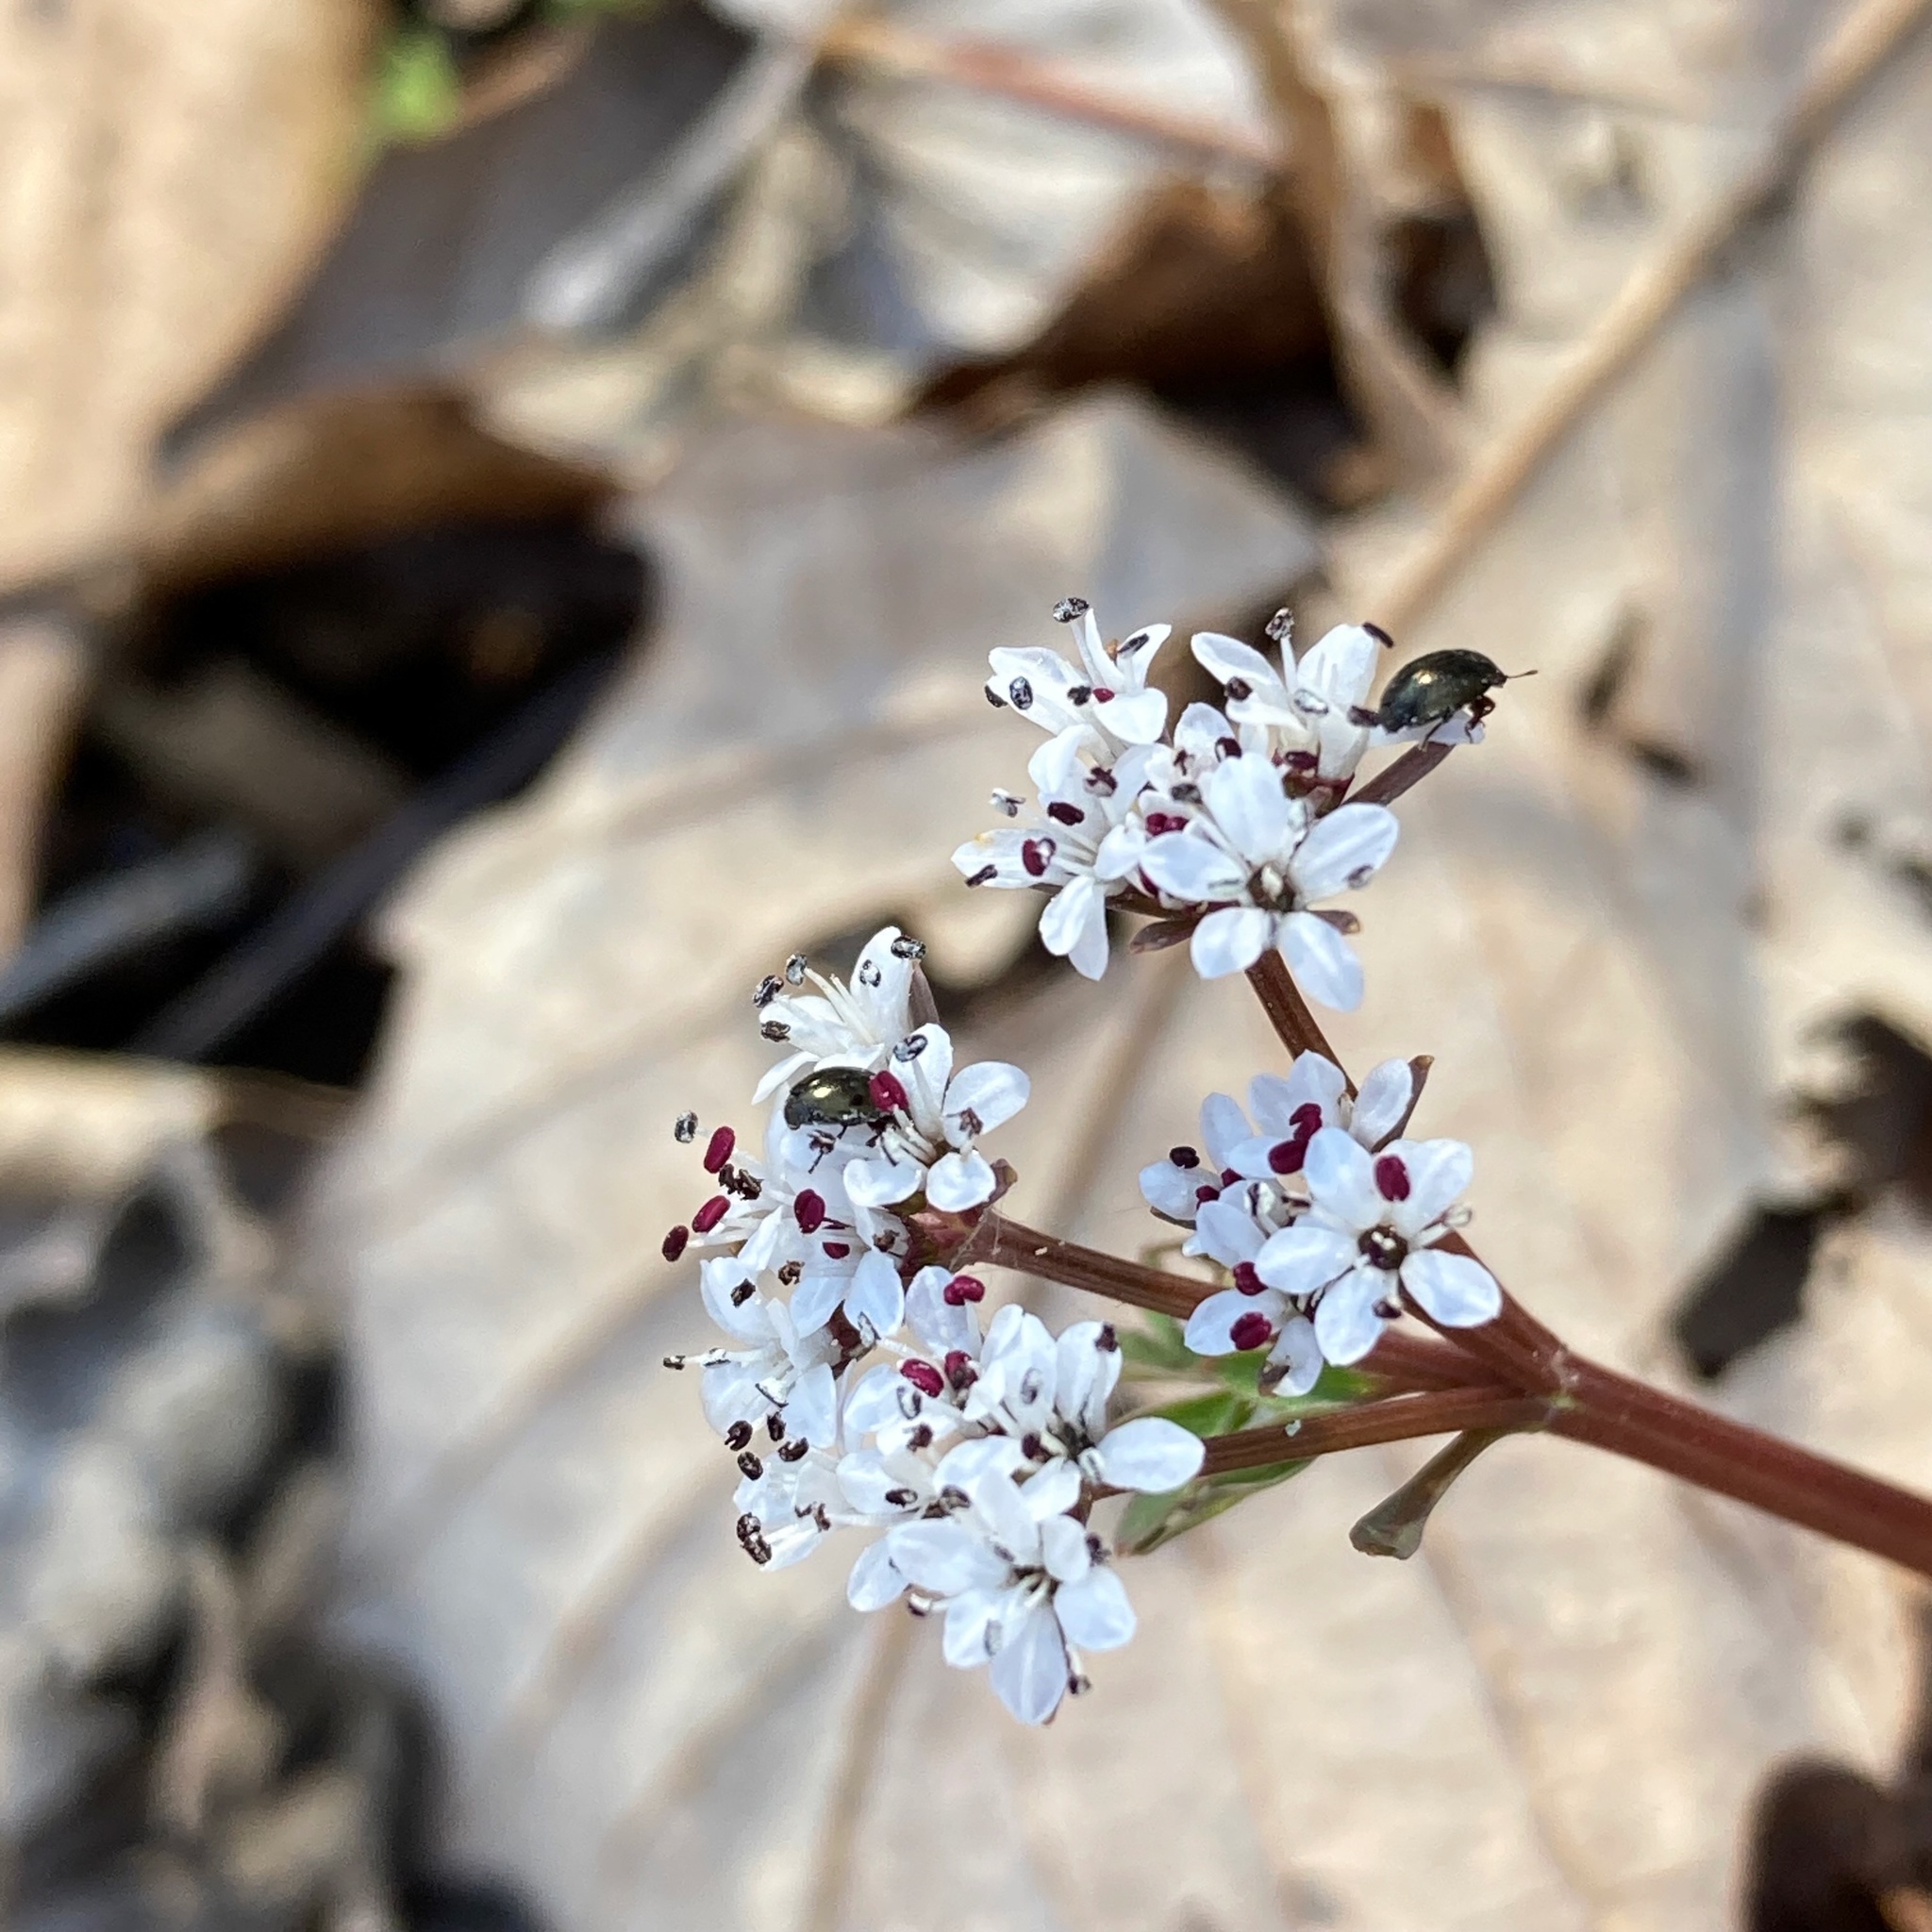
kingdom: Plantae
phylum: Tracheophyta
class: Magnoliopsida
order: Apiales
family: Apiaceae
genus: Erigenia
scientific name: Erigenia bulbosa
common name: Pepper-and-salt
